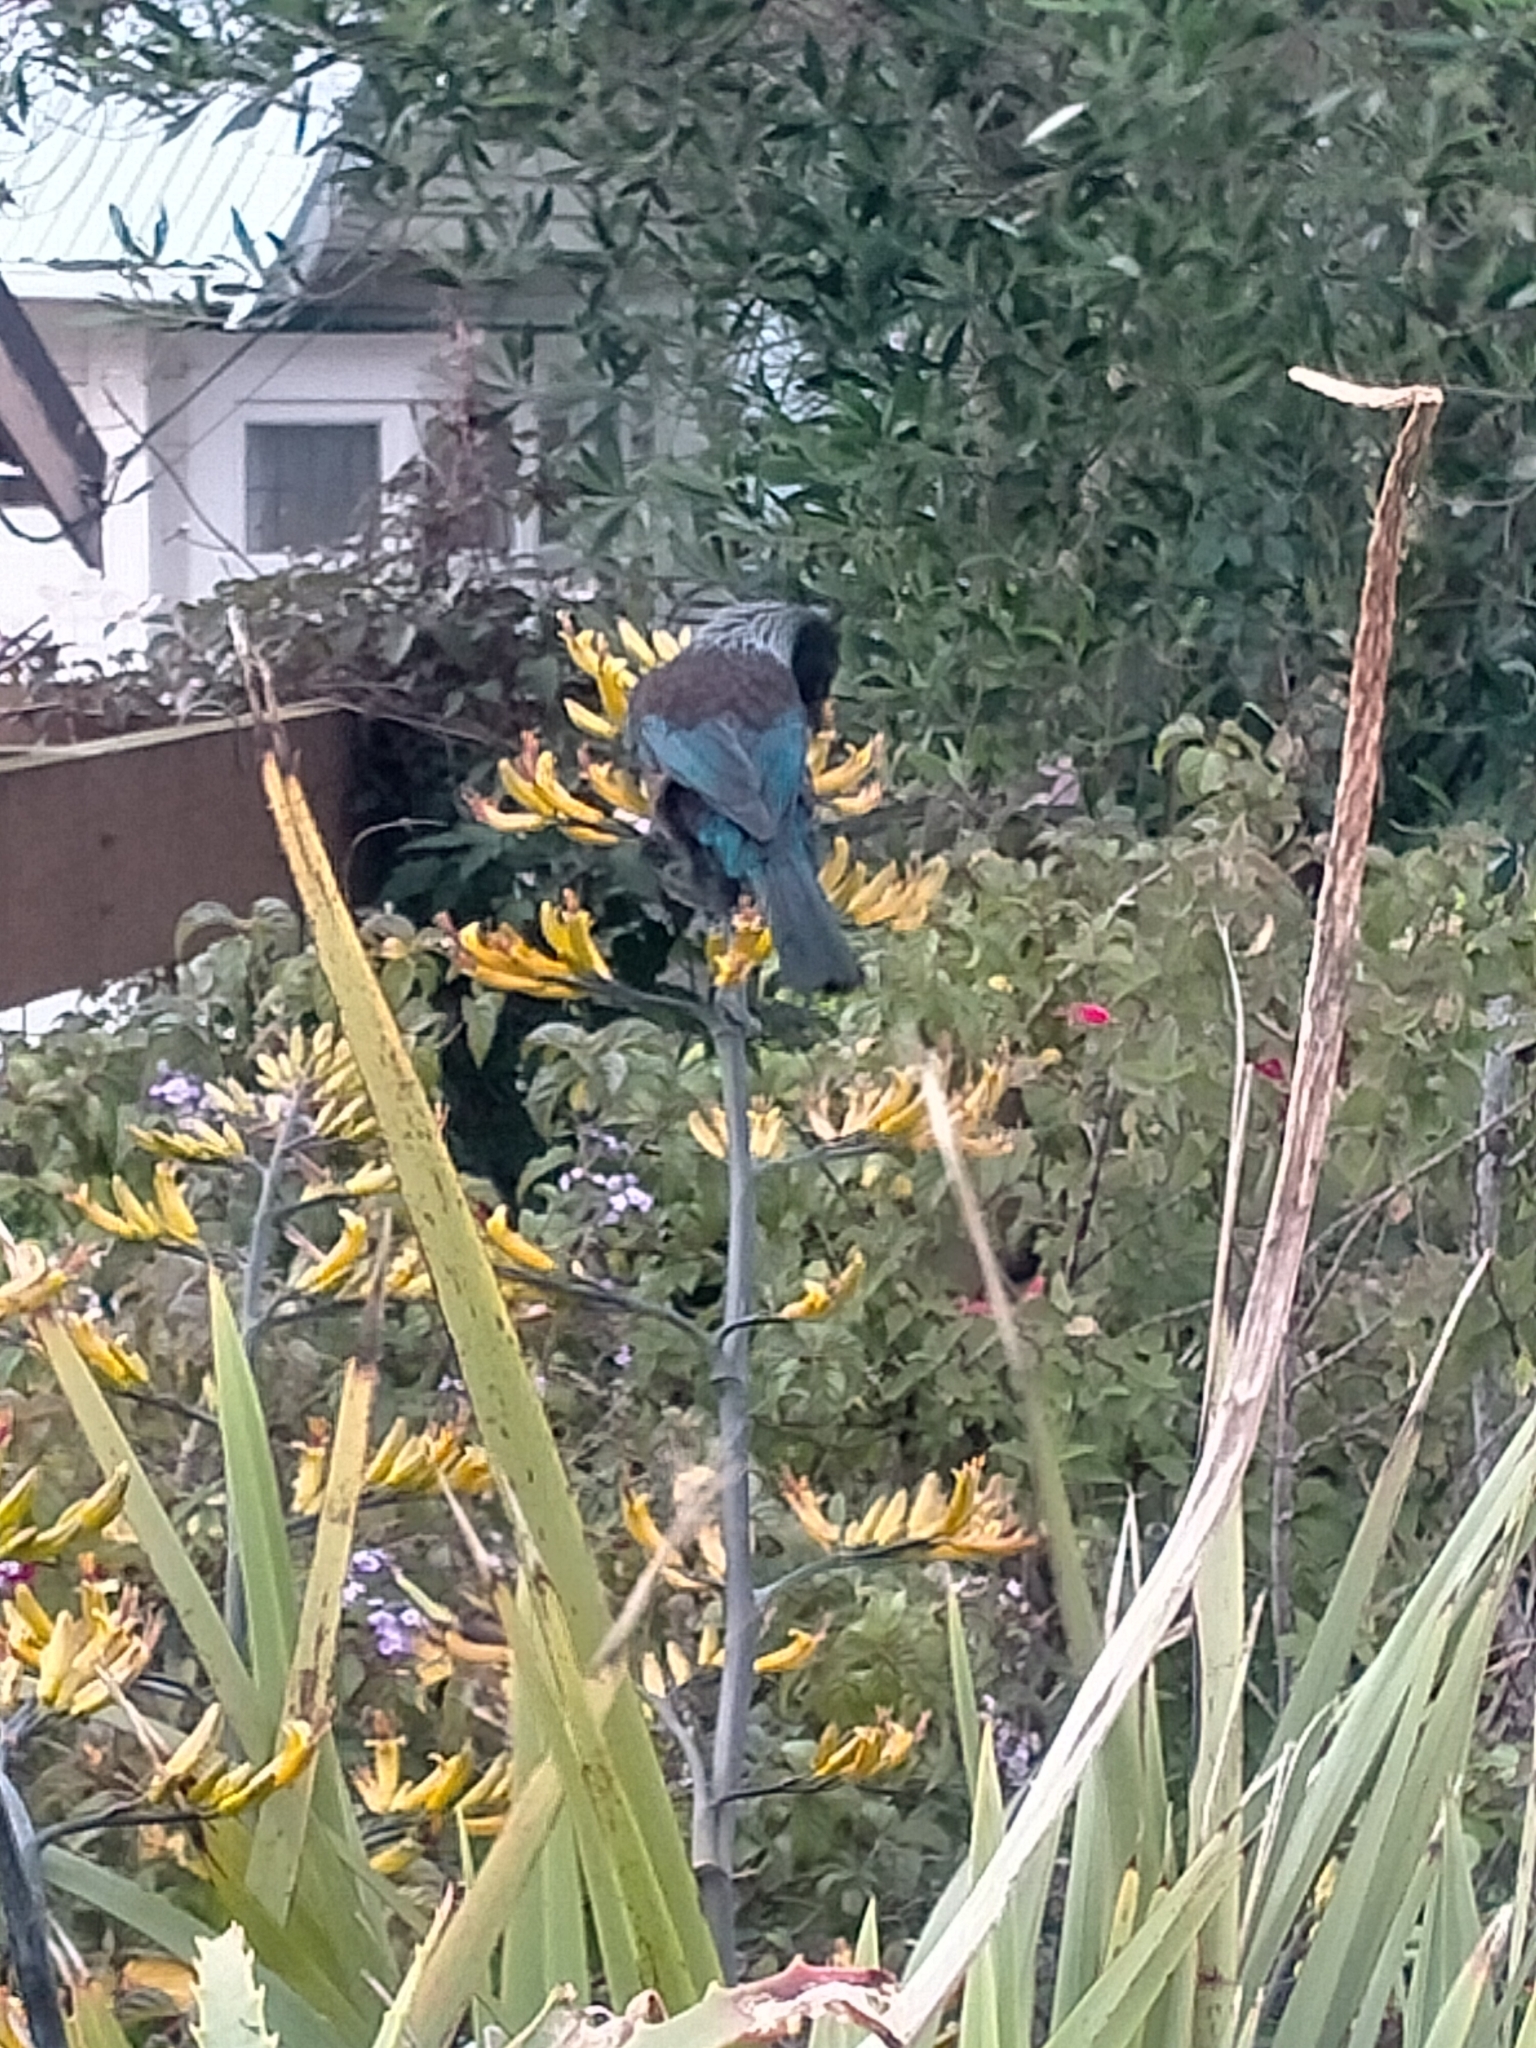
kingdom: Animalia
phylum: Chordata
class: Aves
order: Passeriformes
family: Meliphagidae
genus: Prosthemadera
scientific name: Prosthemadera novaeseelandiae
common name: Tui
